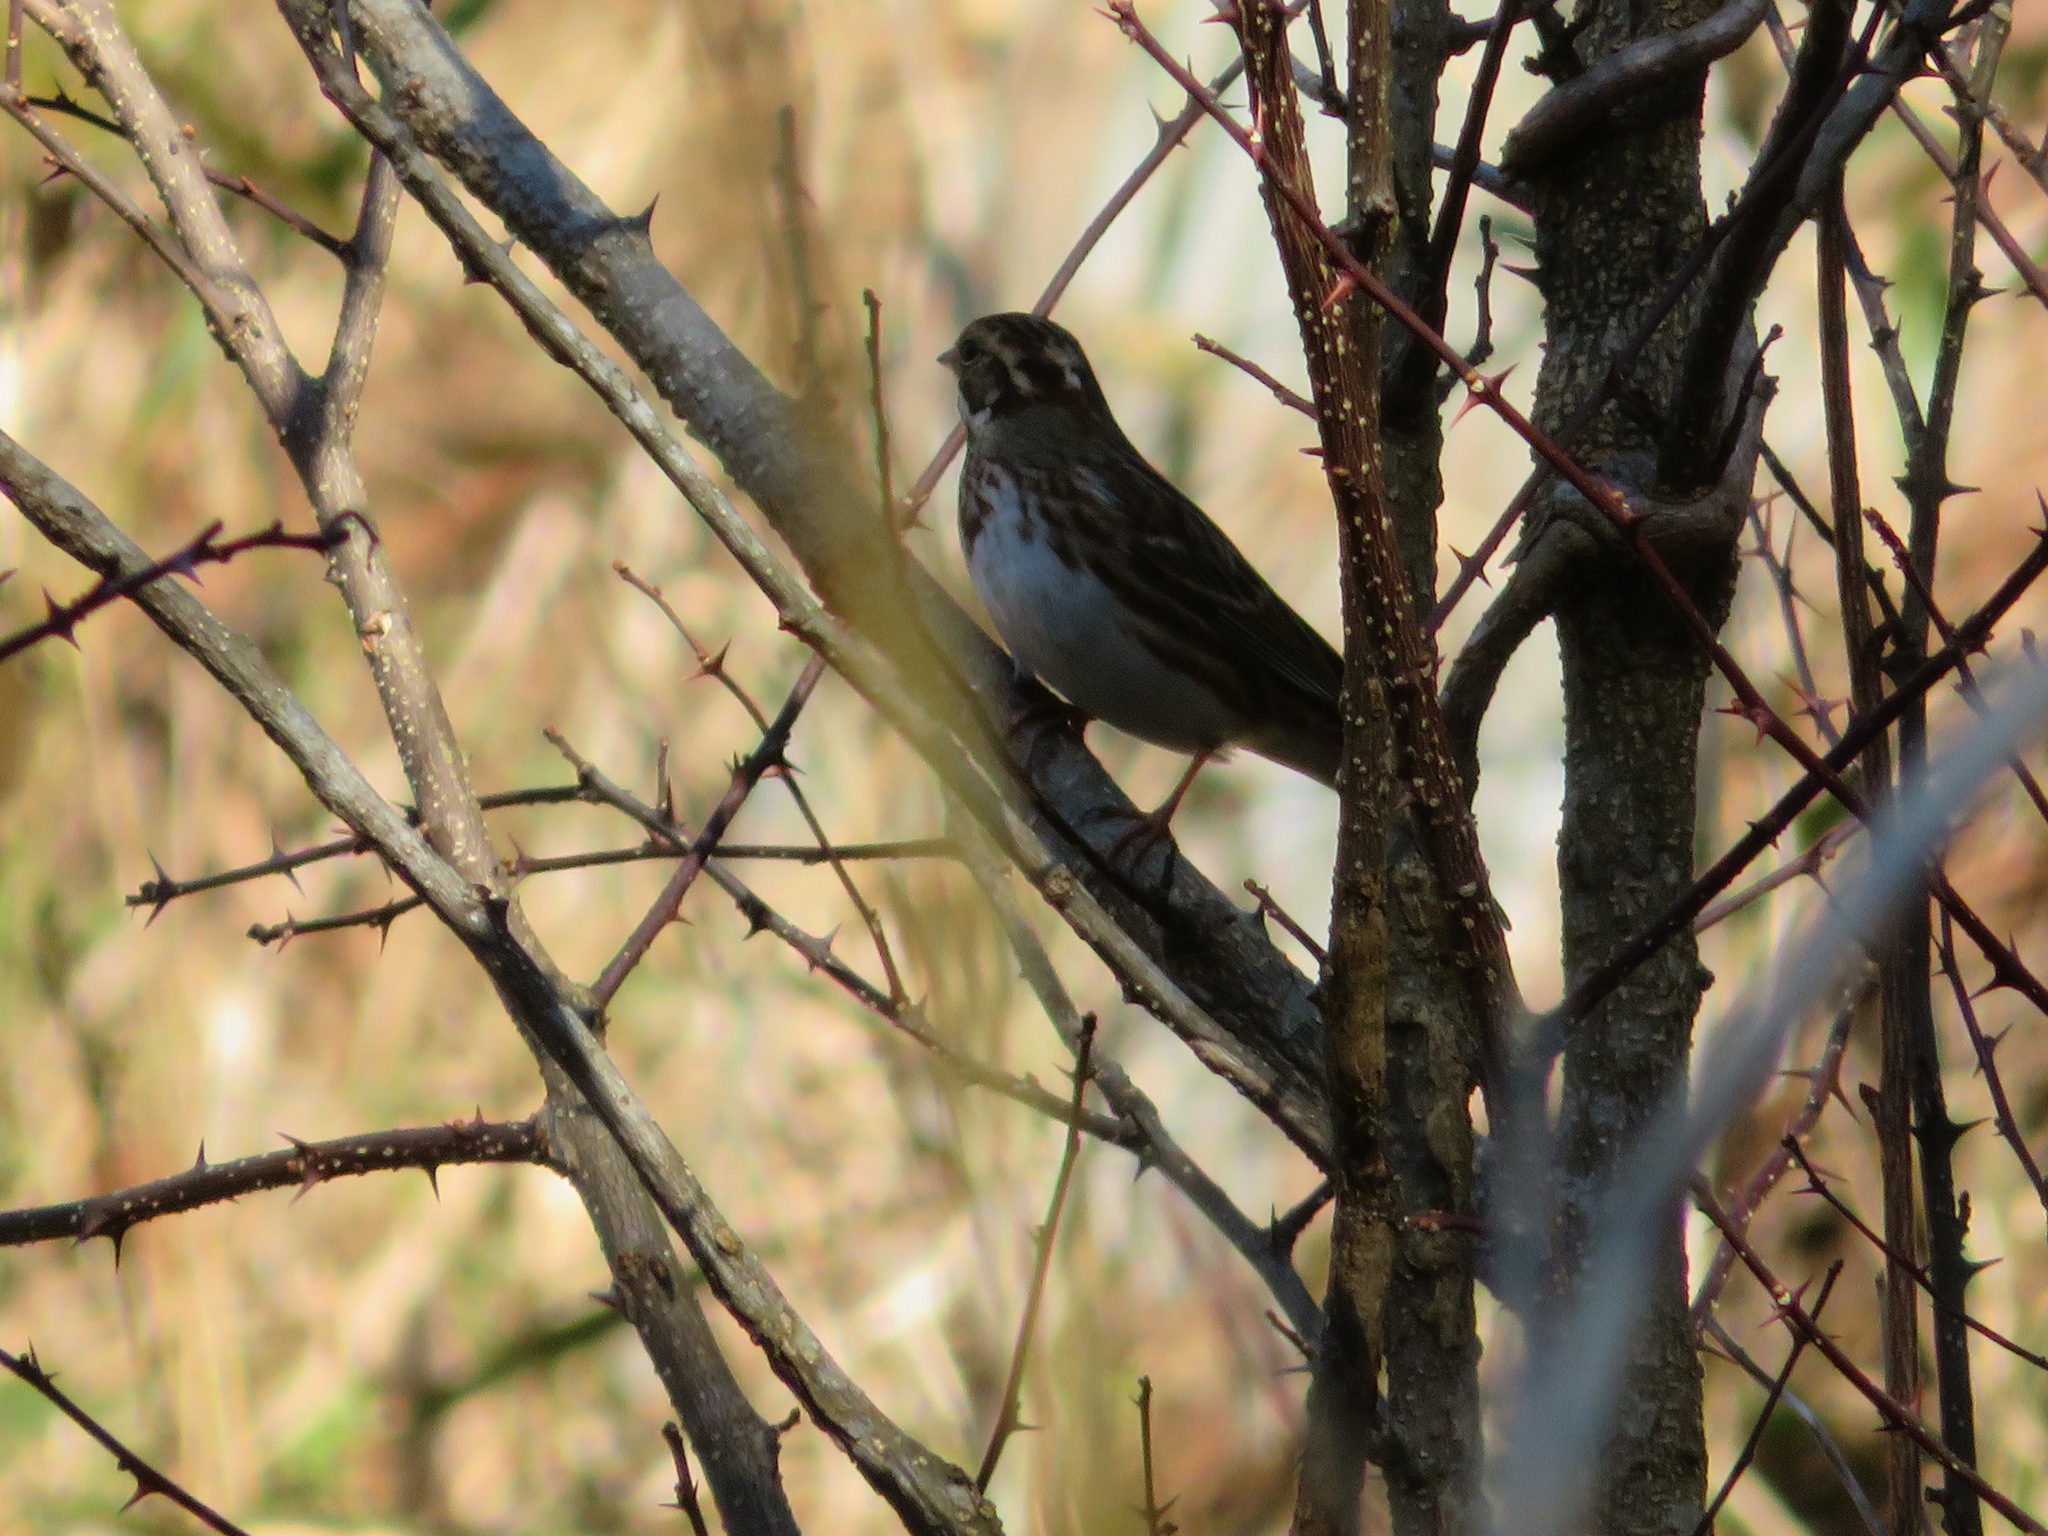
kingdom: Animalia
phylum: Chordata
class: Aves
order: Passeriformes
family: Emberizidae
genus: Emberiza
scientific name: Emberiza rustica
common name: Rustic bunting
